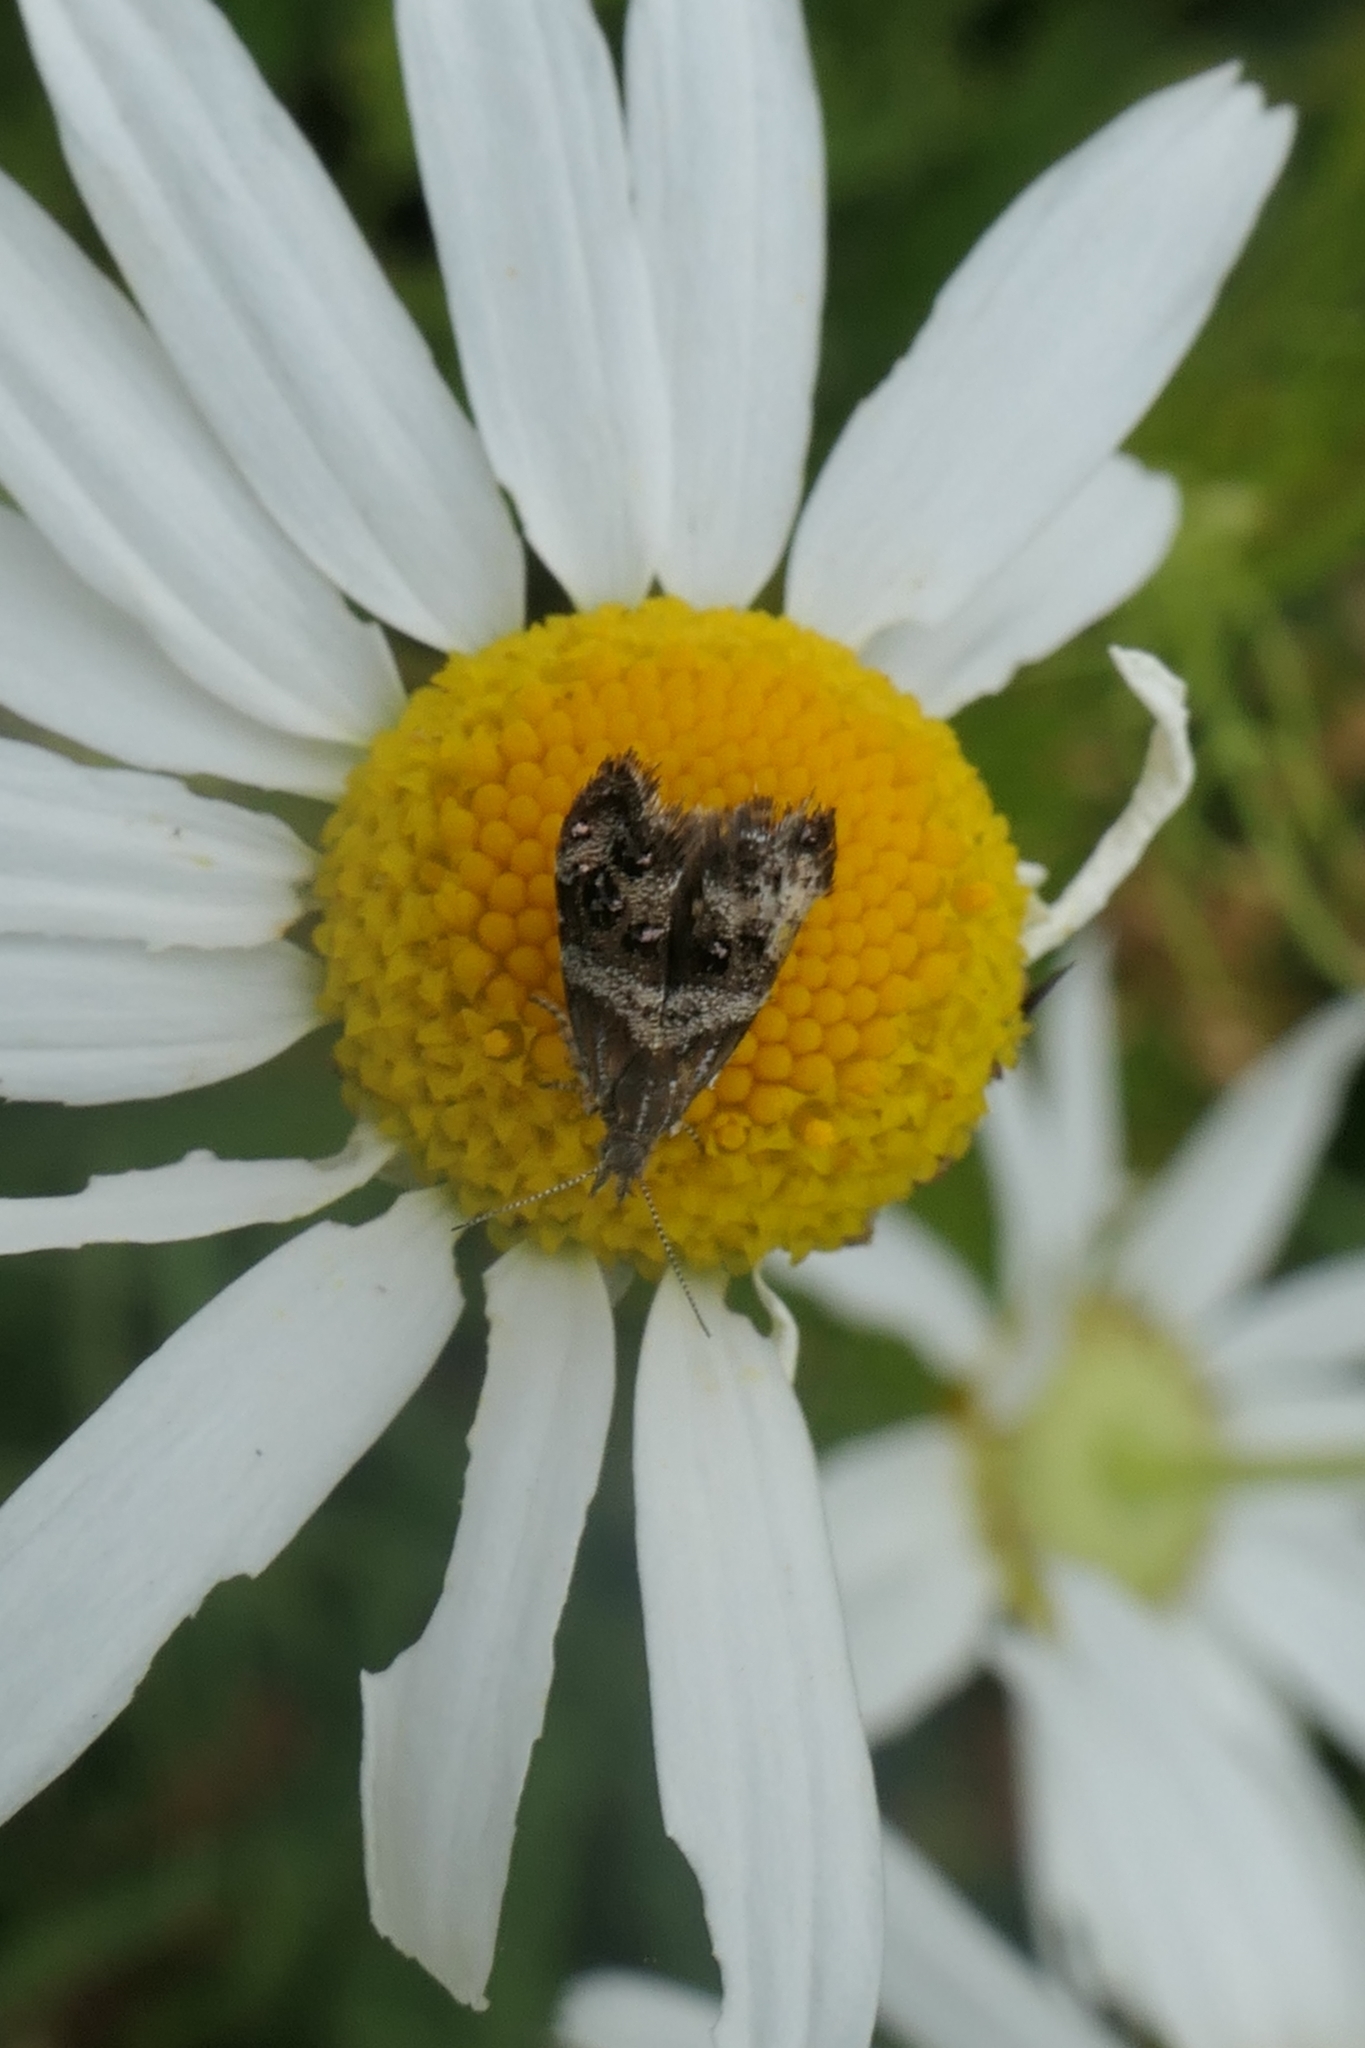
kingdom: Animalia
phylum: Arthropoda
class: Insecta
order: Lepidoptera
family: Choreutidae
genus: Tebenna
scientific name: Tebenna micalis
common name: Vagrant twitcher
